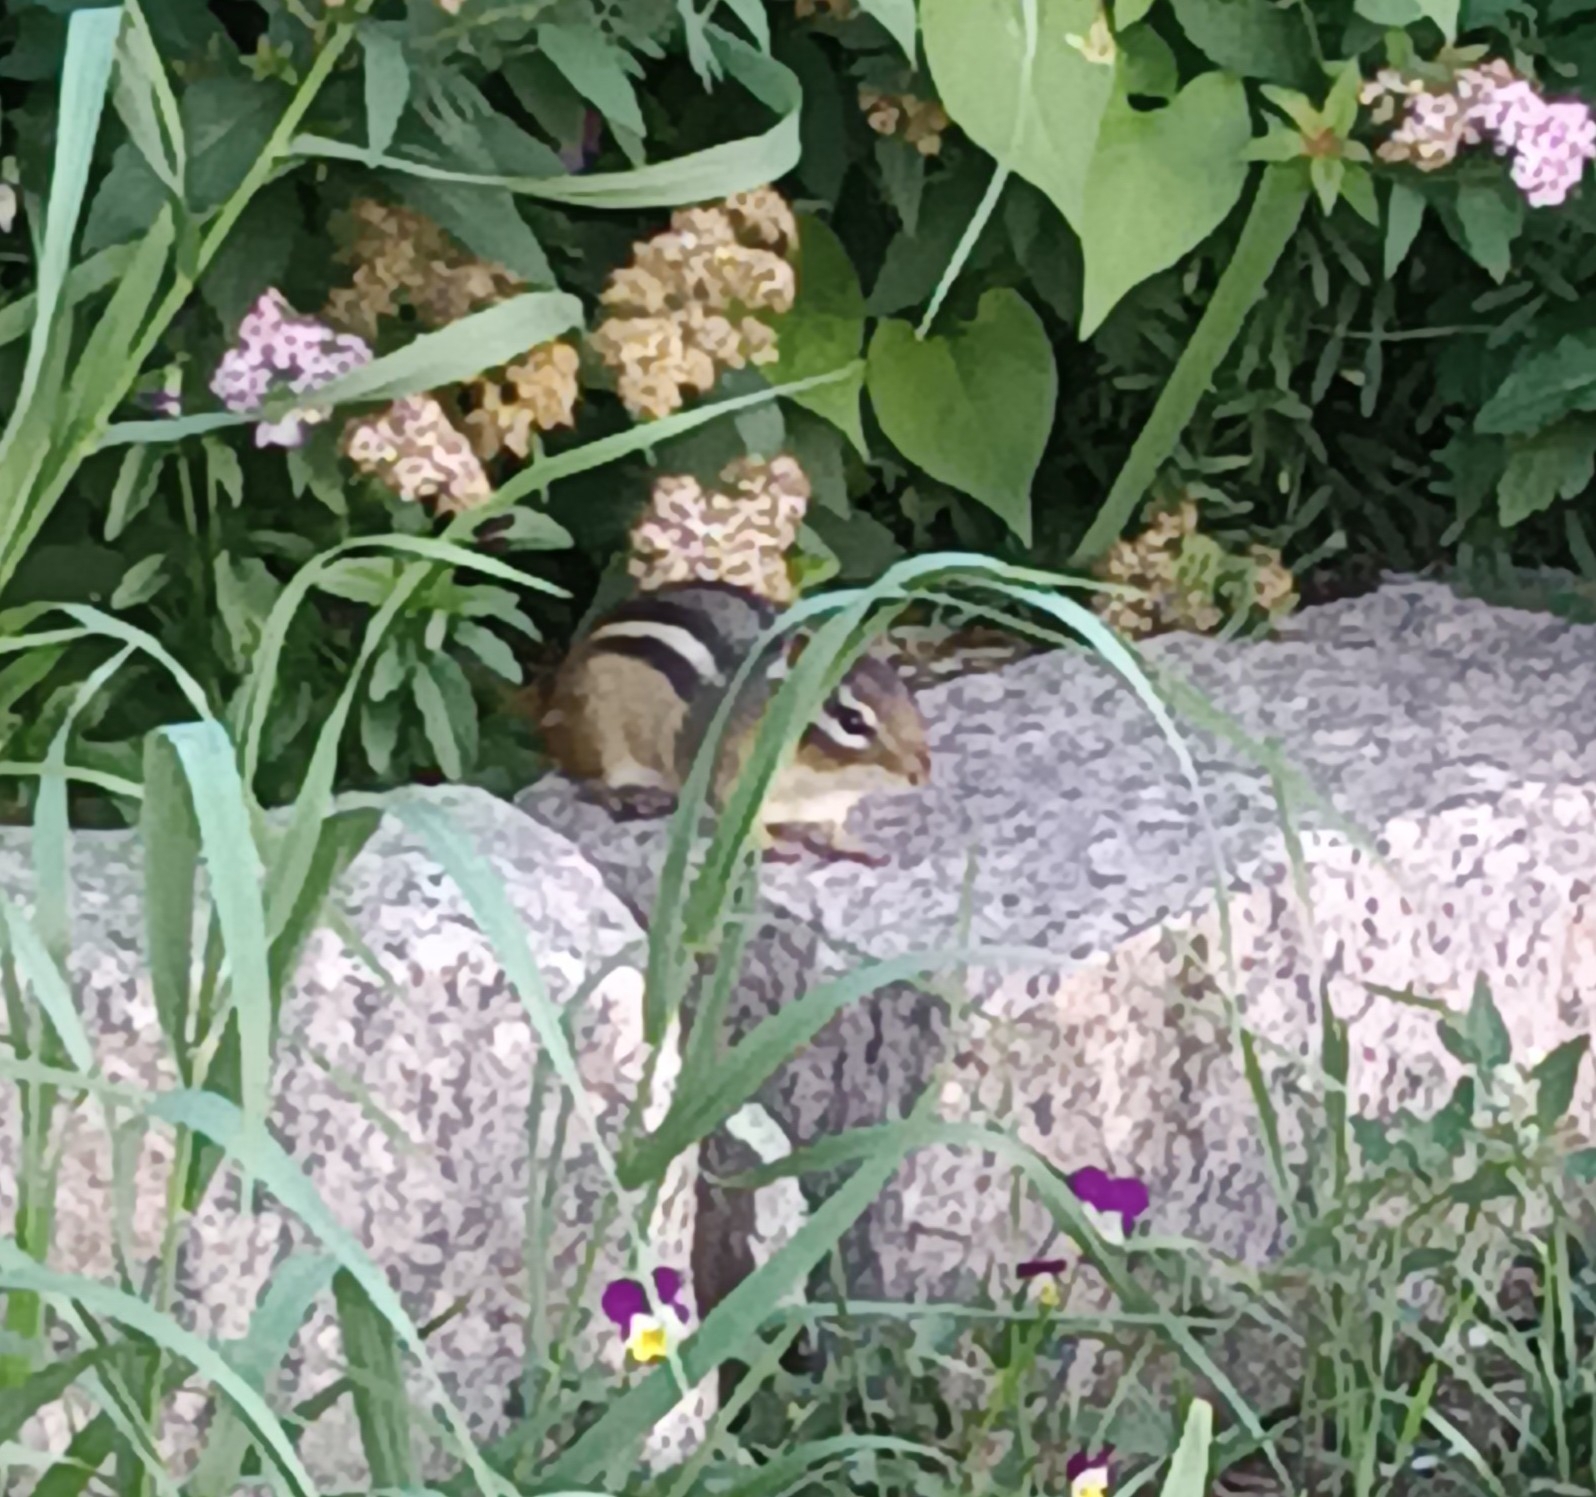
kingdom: Animalia
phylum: Chordata
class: Mammalia
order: Rodentia
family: Sciuridae
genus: Tamias
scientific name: Tamias striatus
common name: Eastern chipmunk
